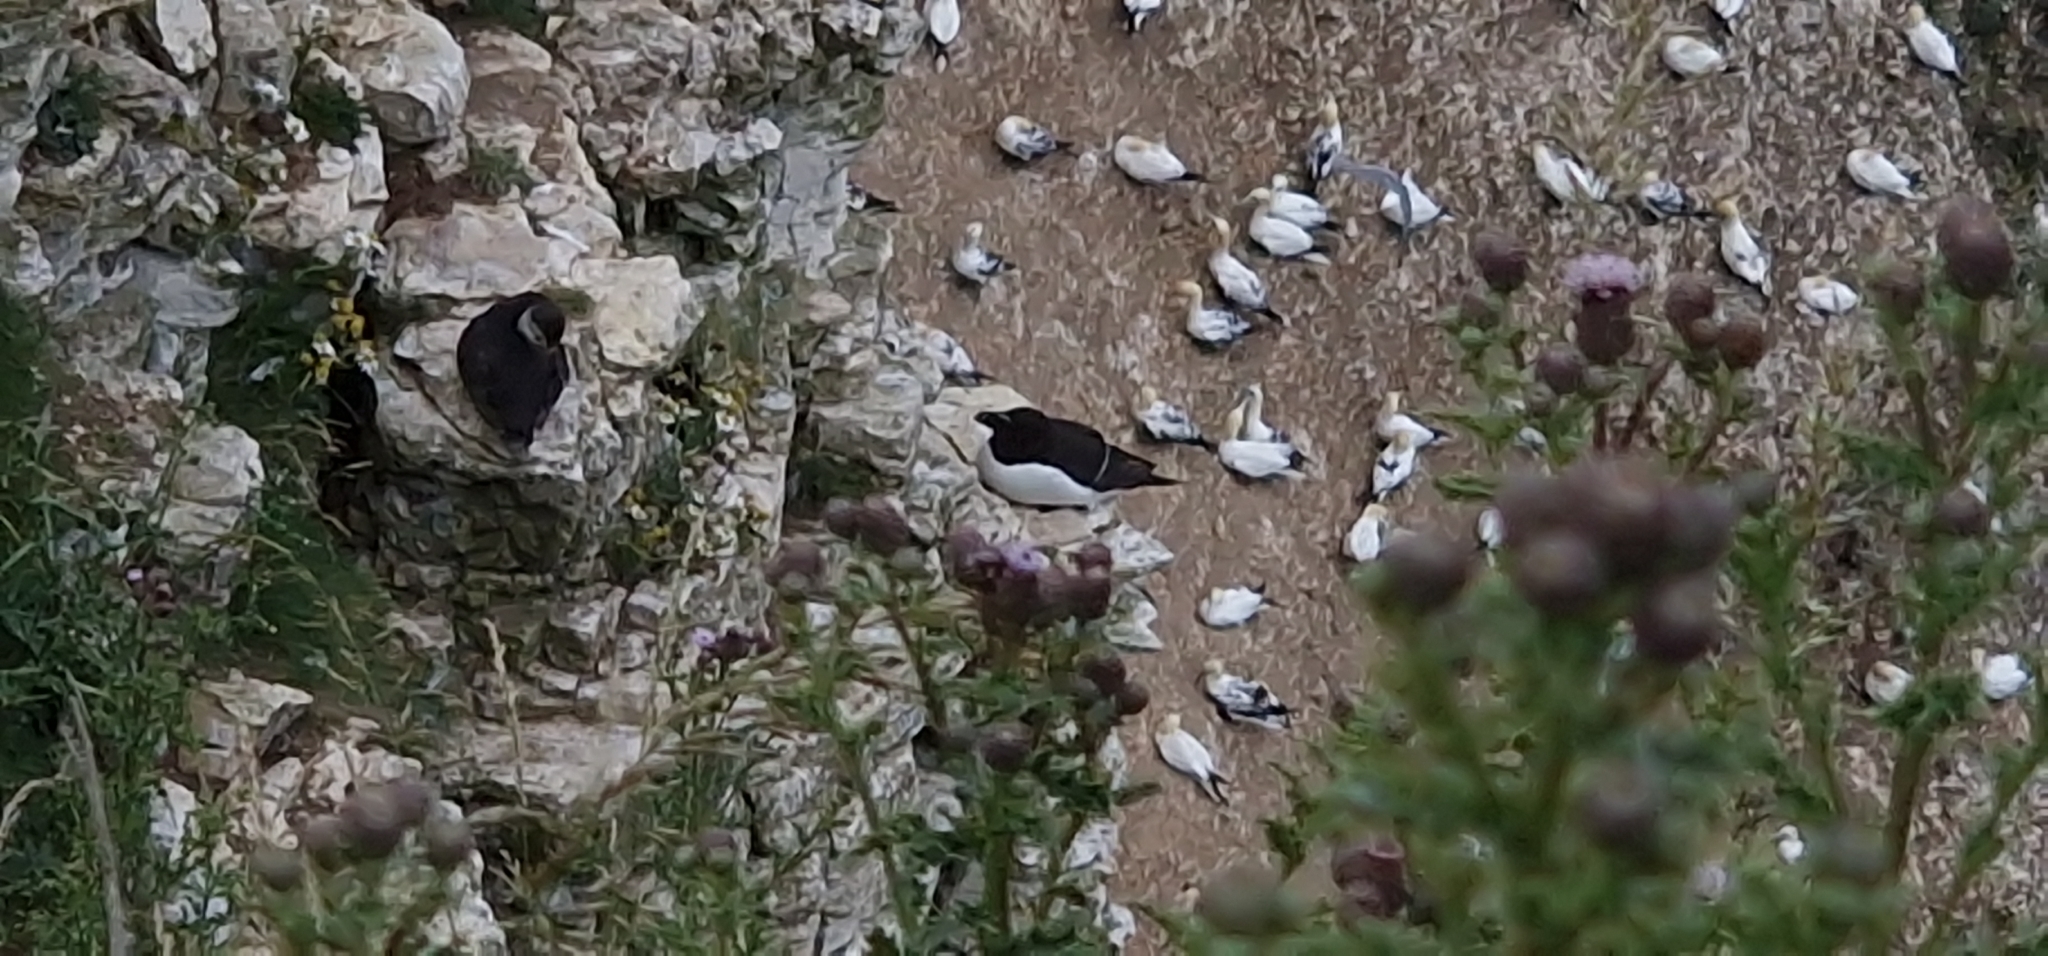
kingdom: Animalia
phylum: Chordata
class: Aves
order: Charadriiformes
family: Alcidae
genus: Alca
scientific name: Alca torda
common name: Razorbill
